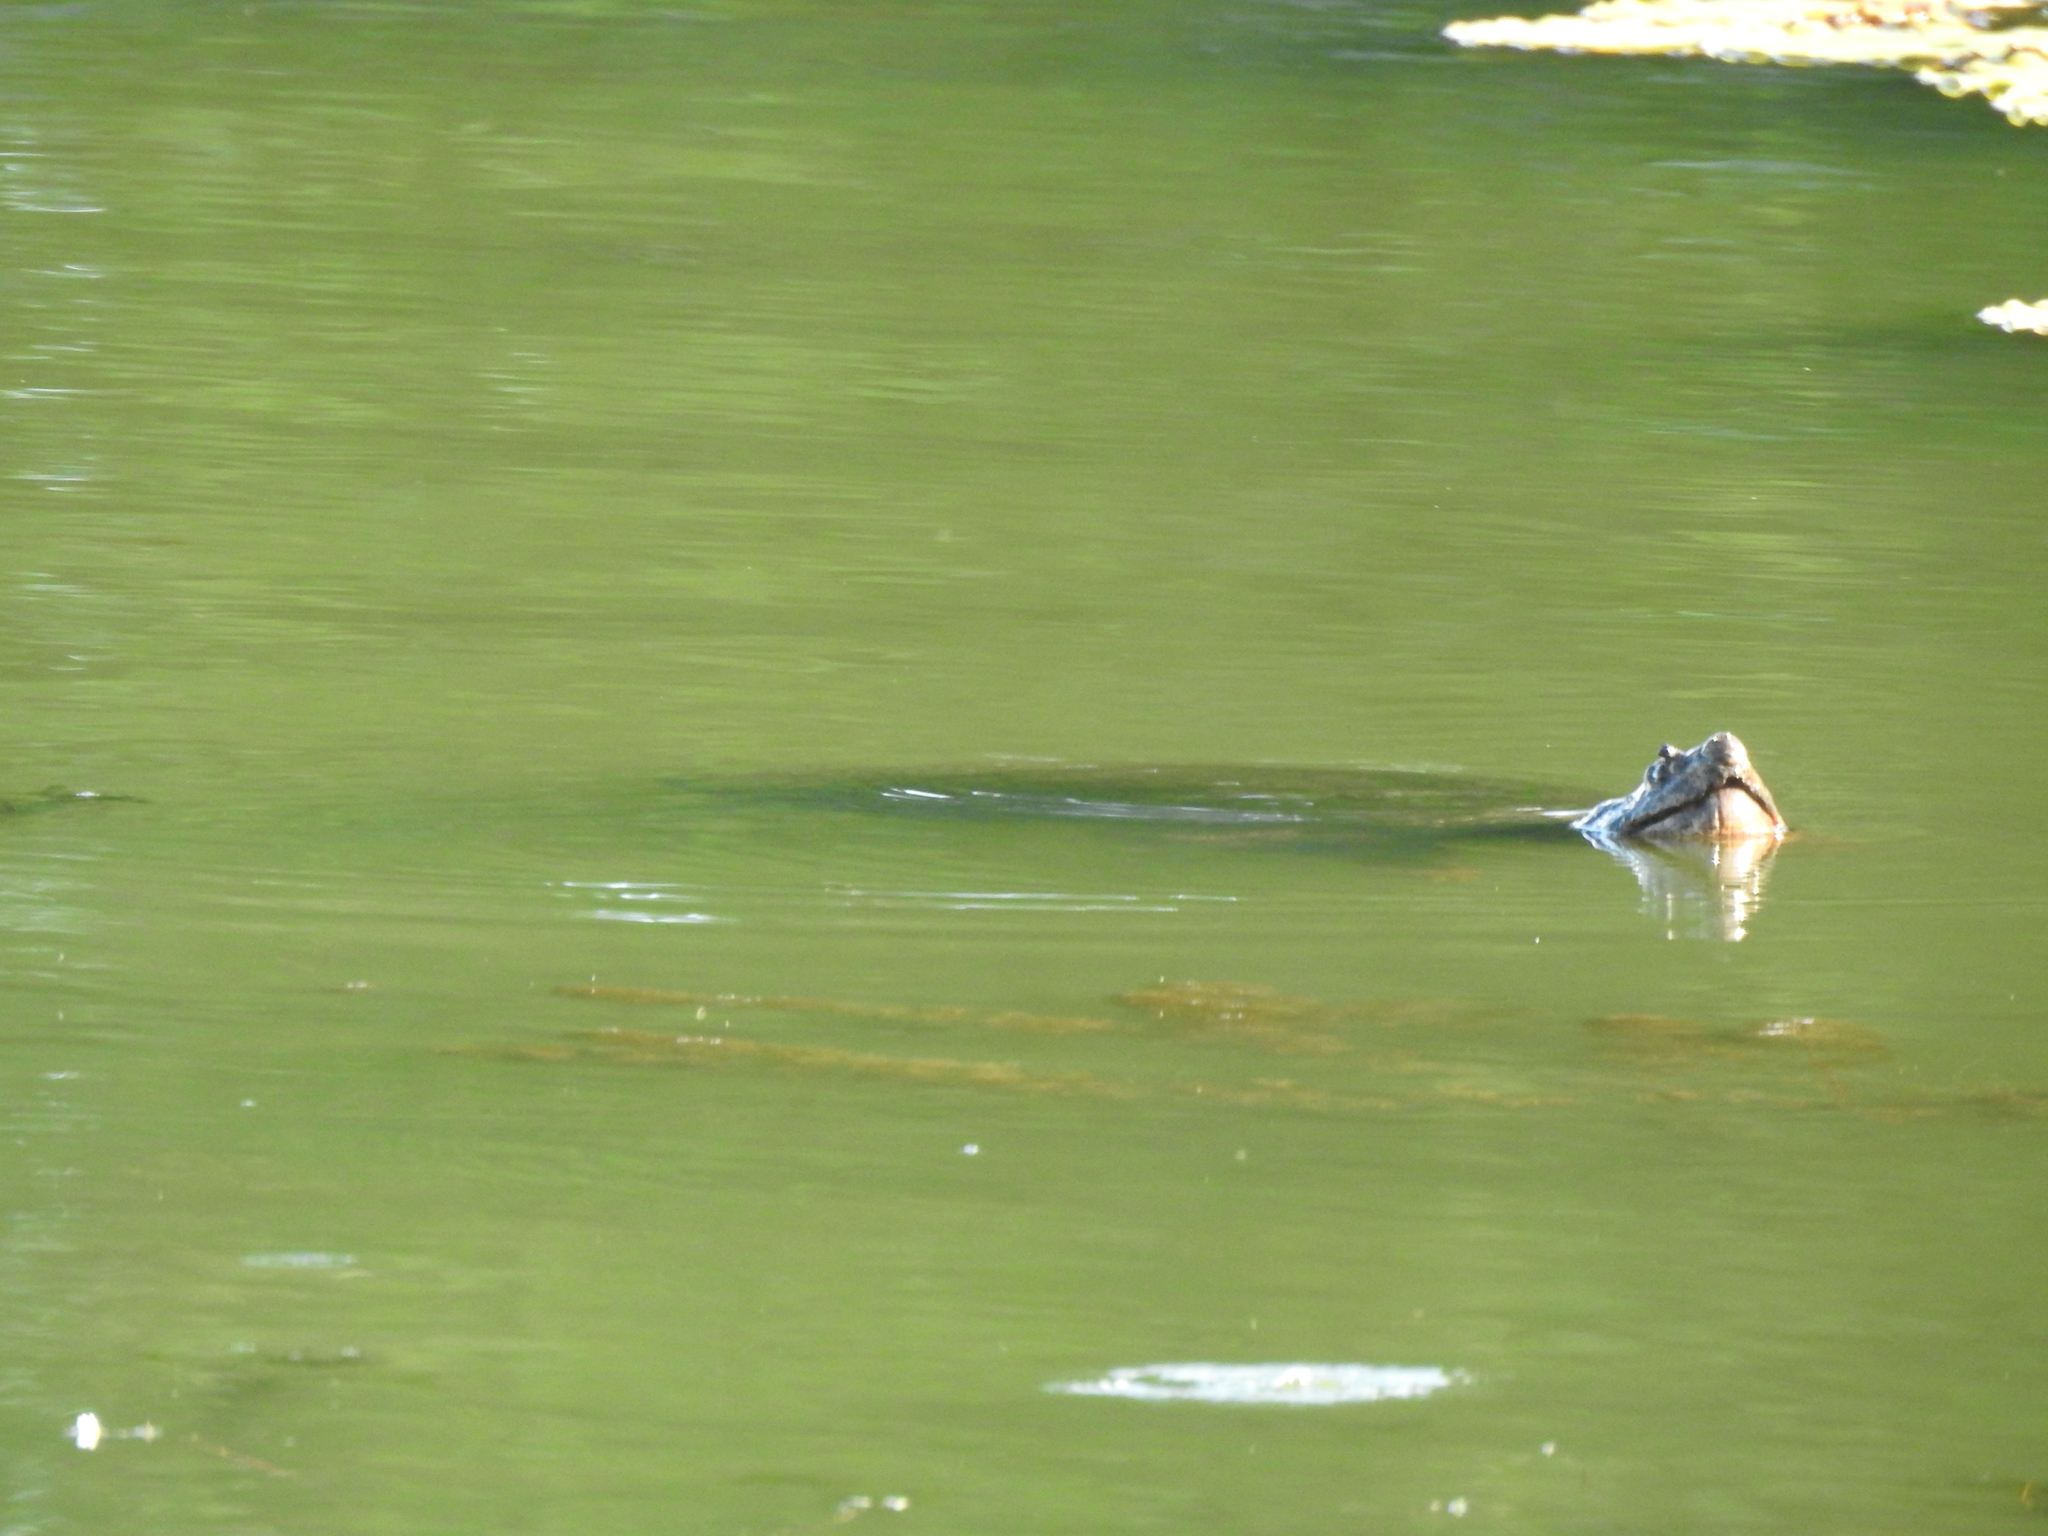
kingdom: Animalia
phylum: Chordata
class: Testudines
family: Chelydridae
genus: Chelydra
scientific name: Chelydra serpentina
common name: Common snapping turtle
